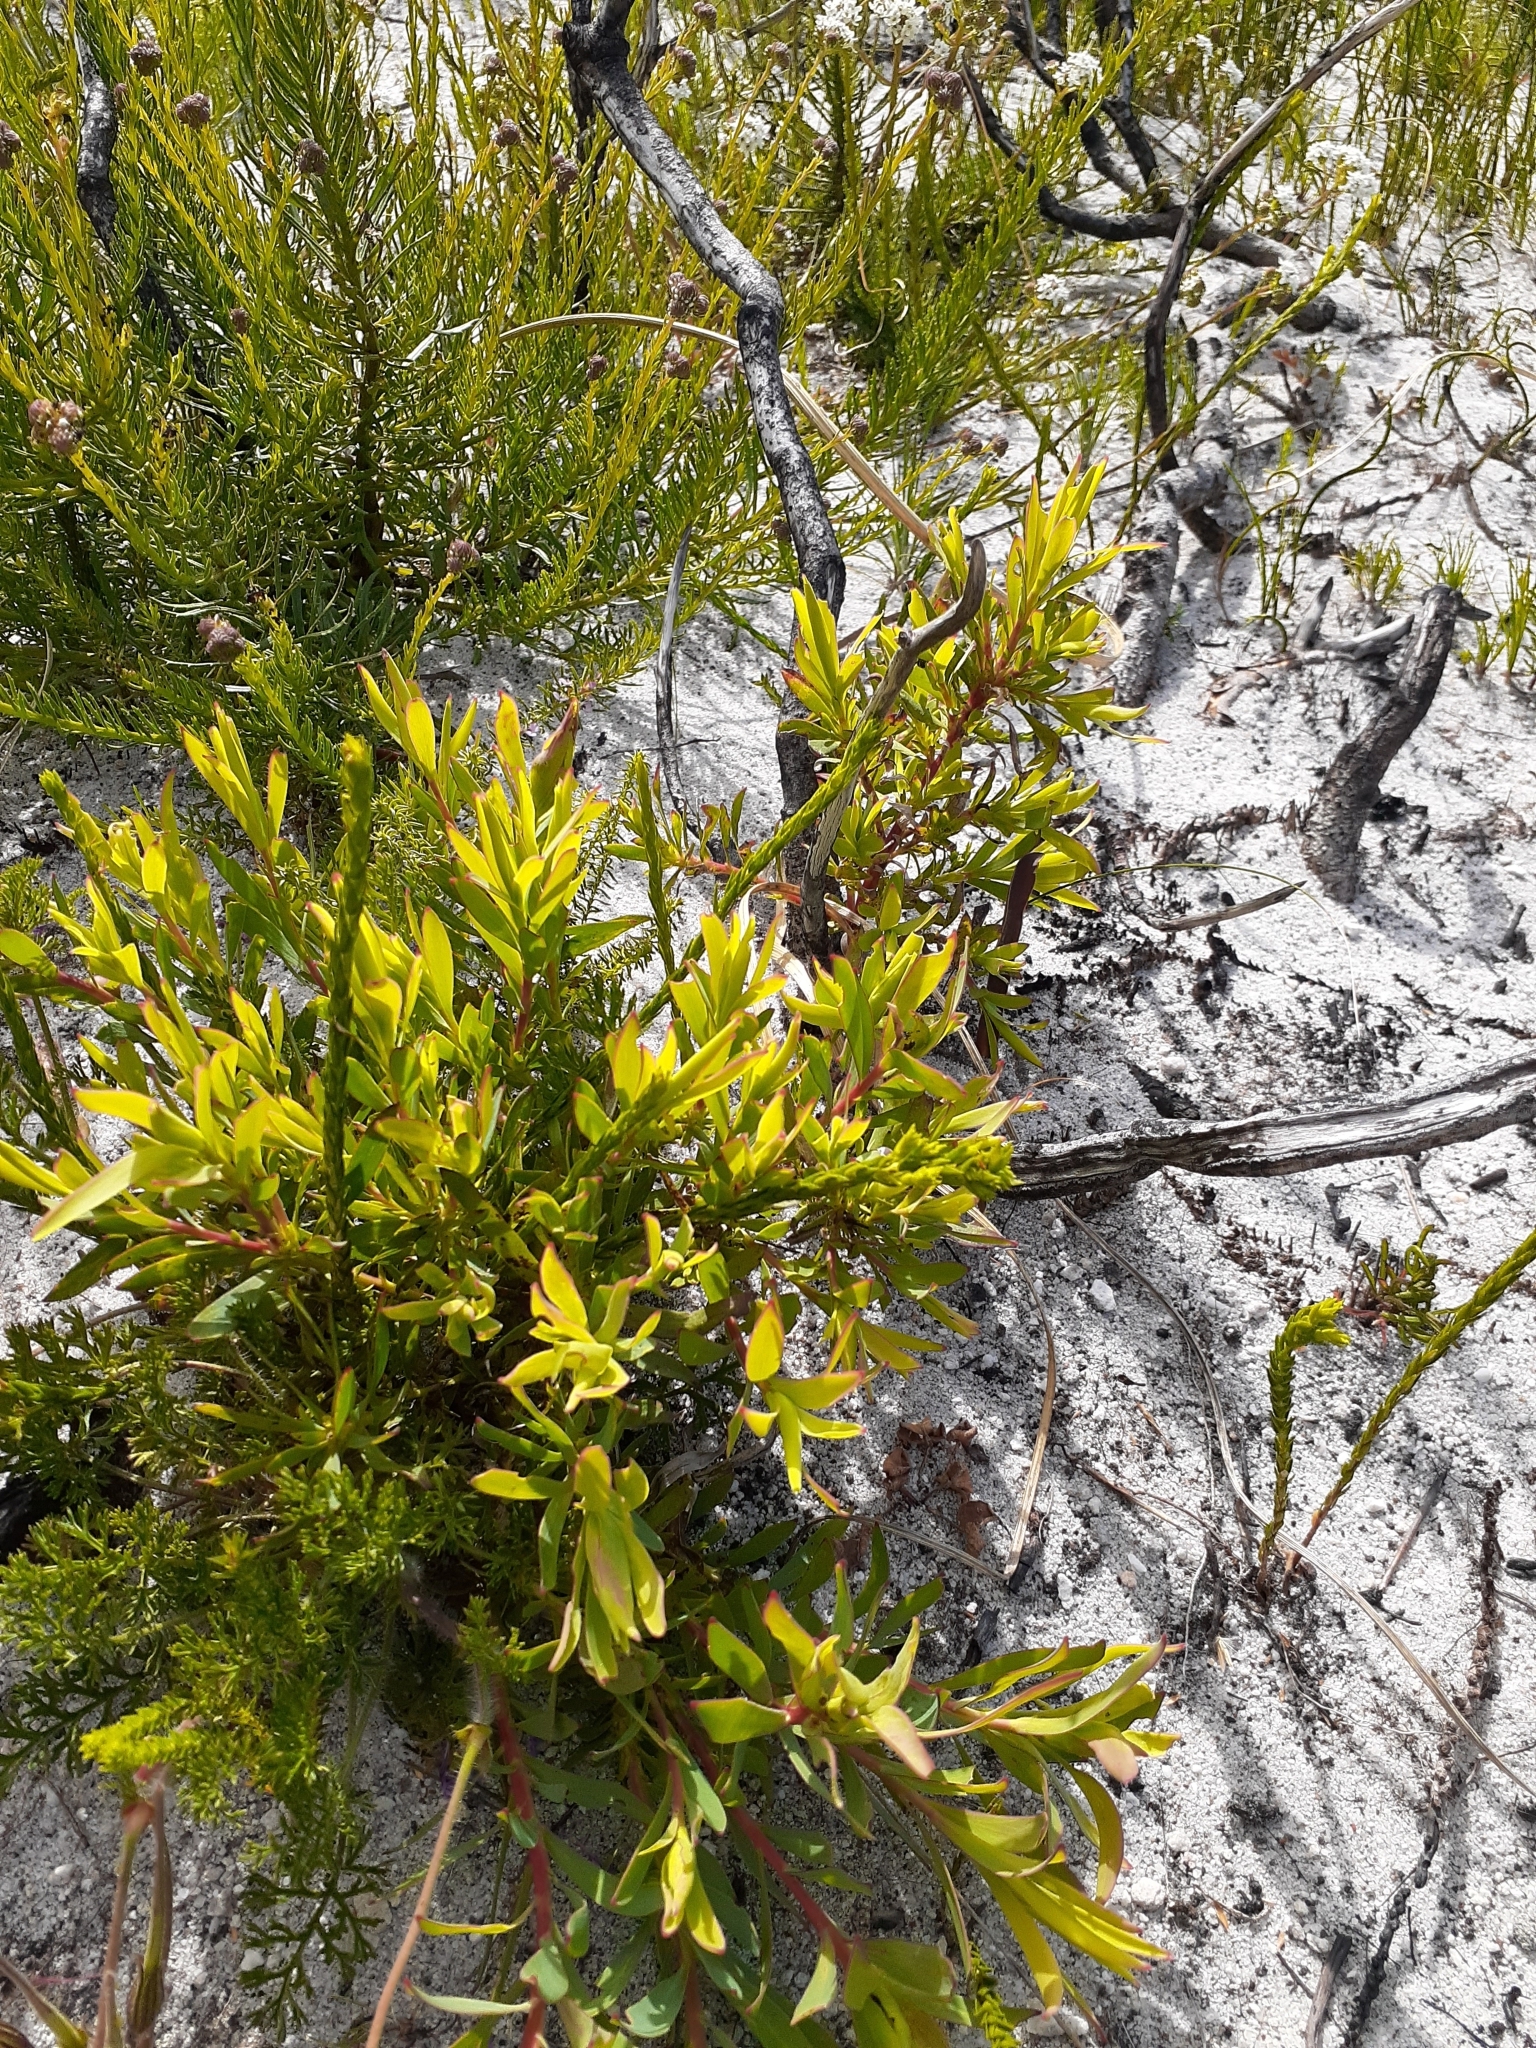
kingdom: Plantae
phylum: Tracheophyta
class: Magnoliopsida
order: Proteales
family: Proteaceae
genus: Leucadendron
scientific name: Leucadendron salignum
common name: Common sunshine conebush
